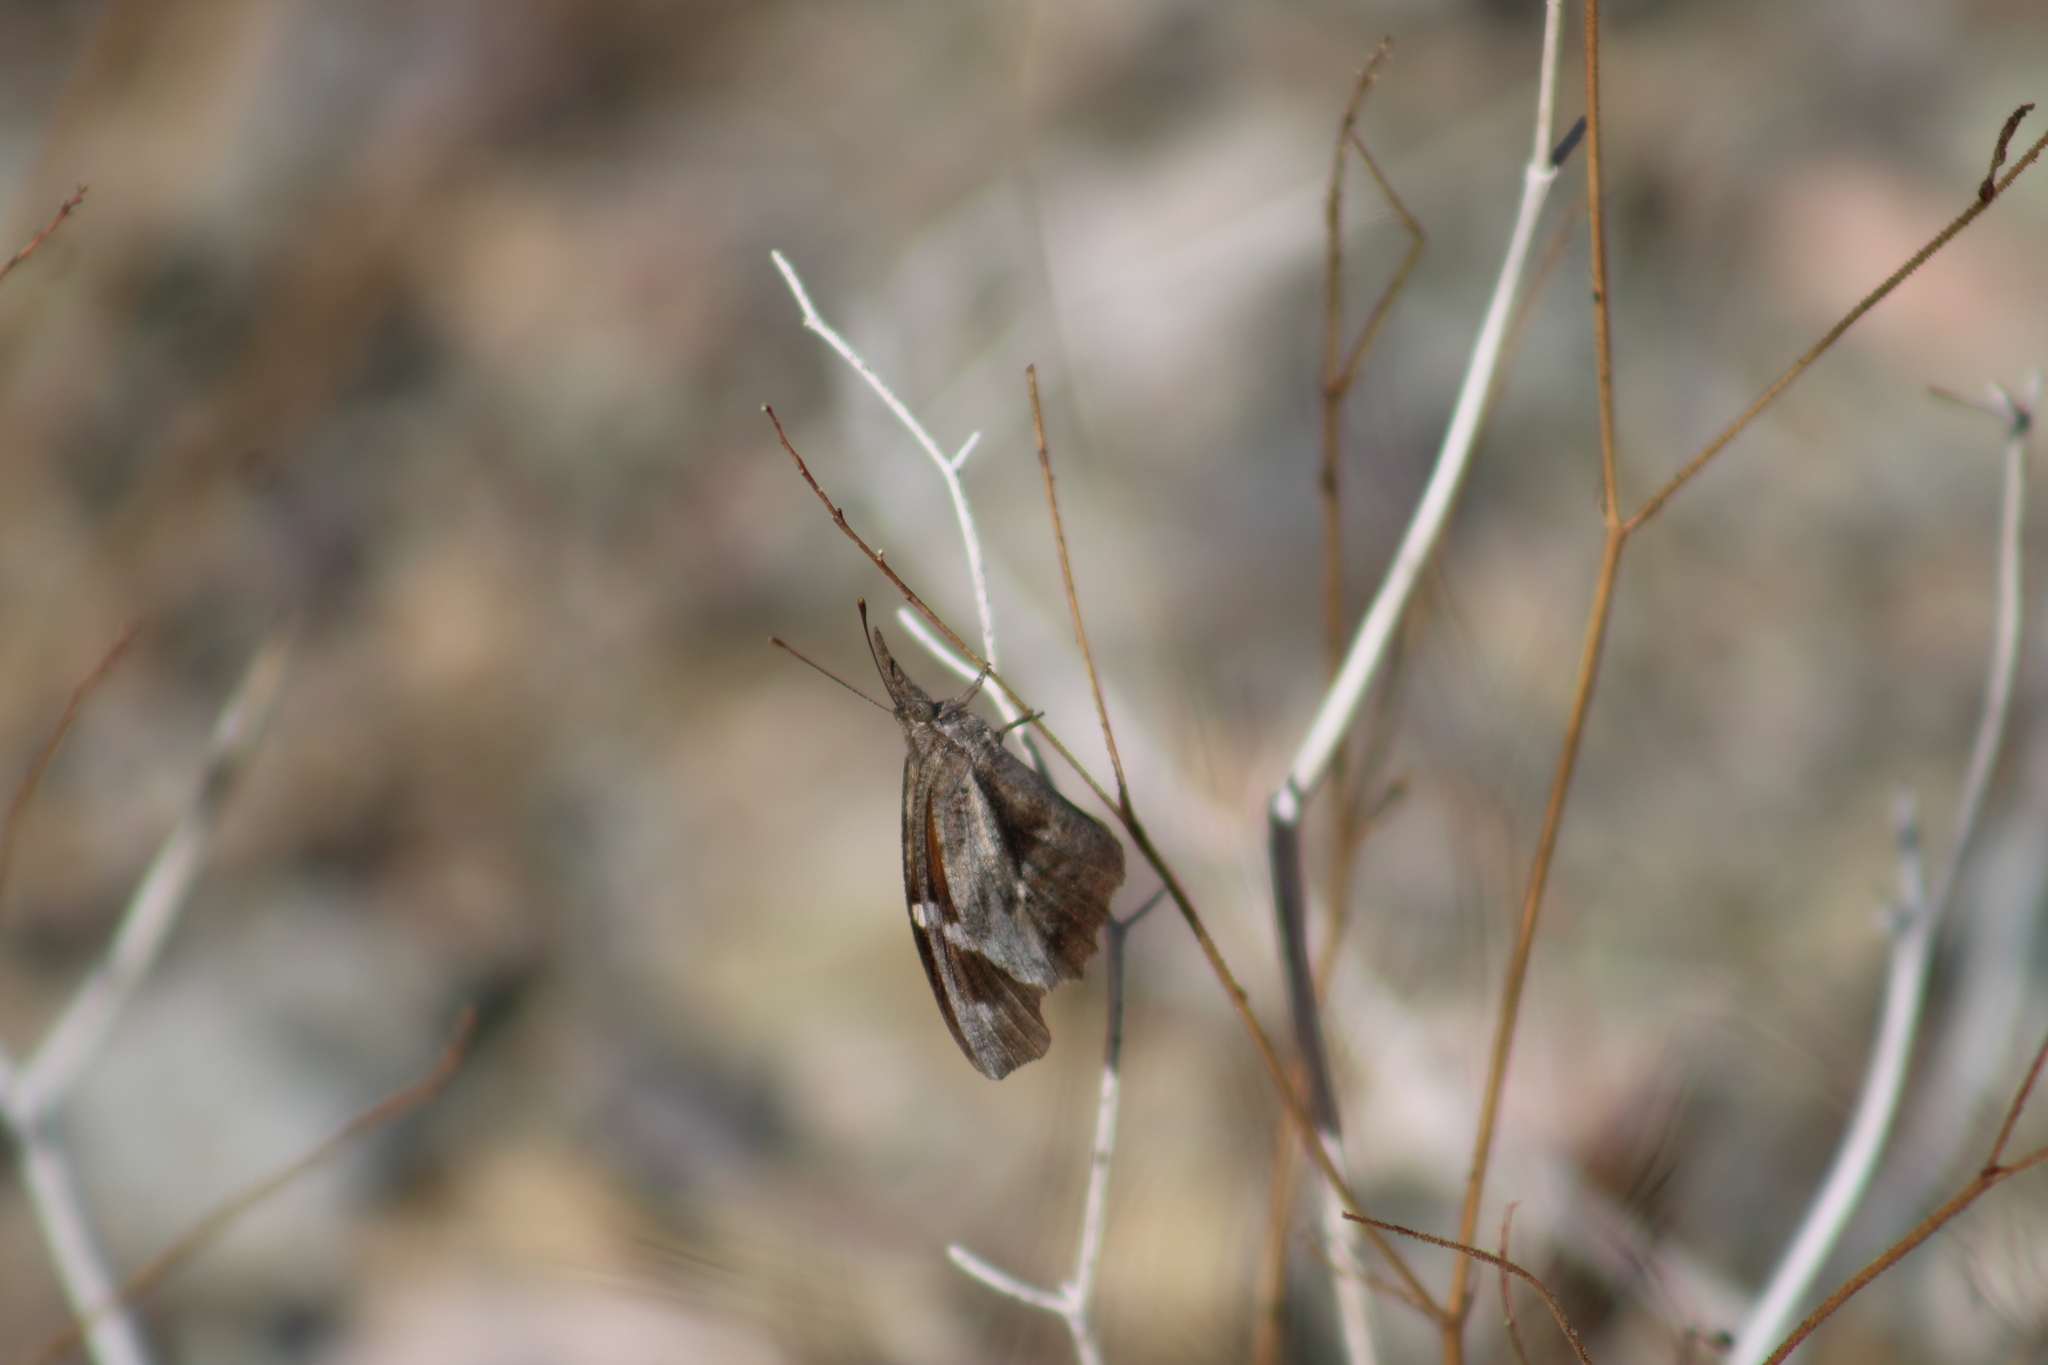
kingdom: Animalia
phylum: Arthropoda
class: Insecta
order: Lepidoptera
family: Nymphalidae
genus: Libytheana
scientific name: Libytheana carinenta
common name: American snout
